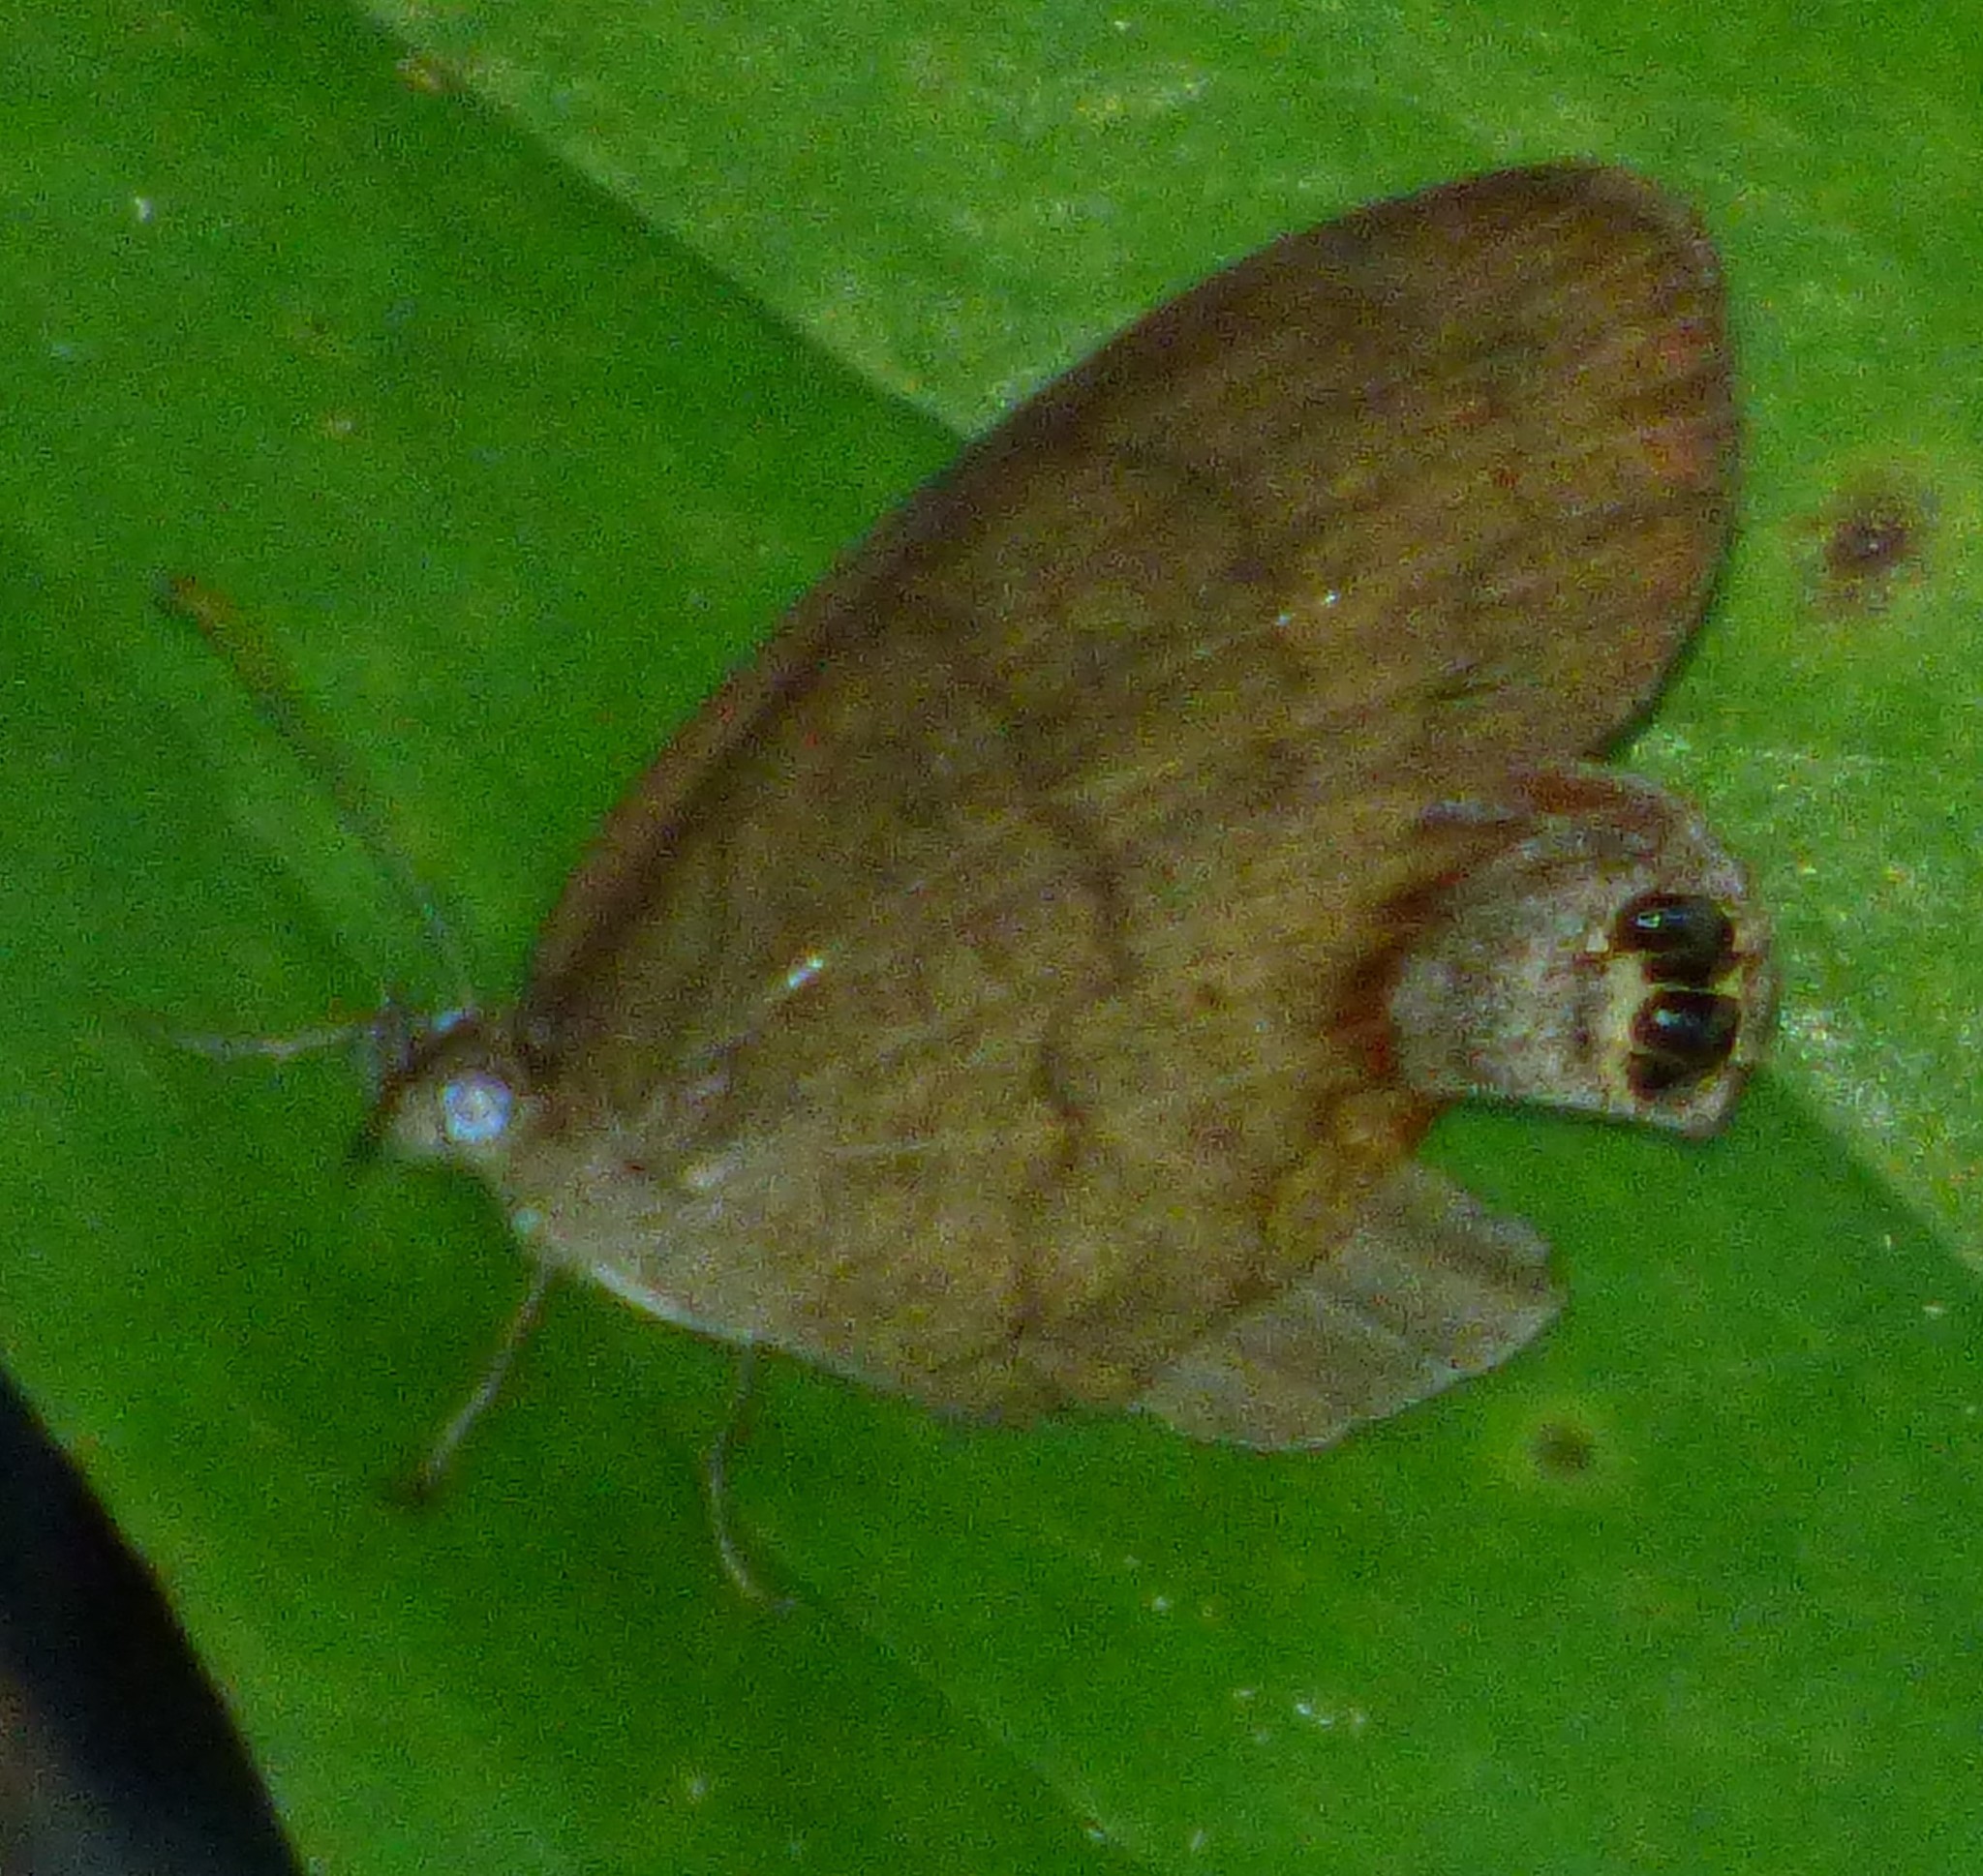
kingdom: Animalia
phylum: Arthropoda
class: Insecta
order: Lepidoptera
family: Nymphalidae
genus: Euptychia
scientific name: Euptychia cornelius
